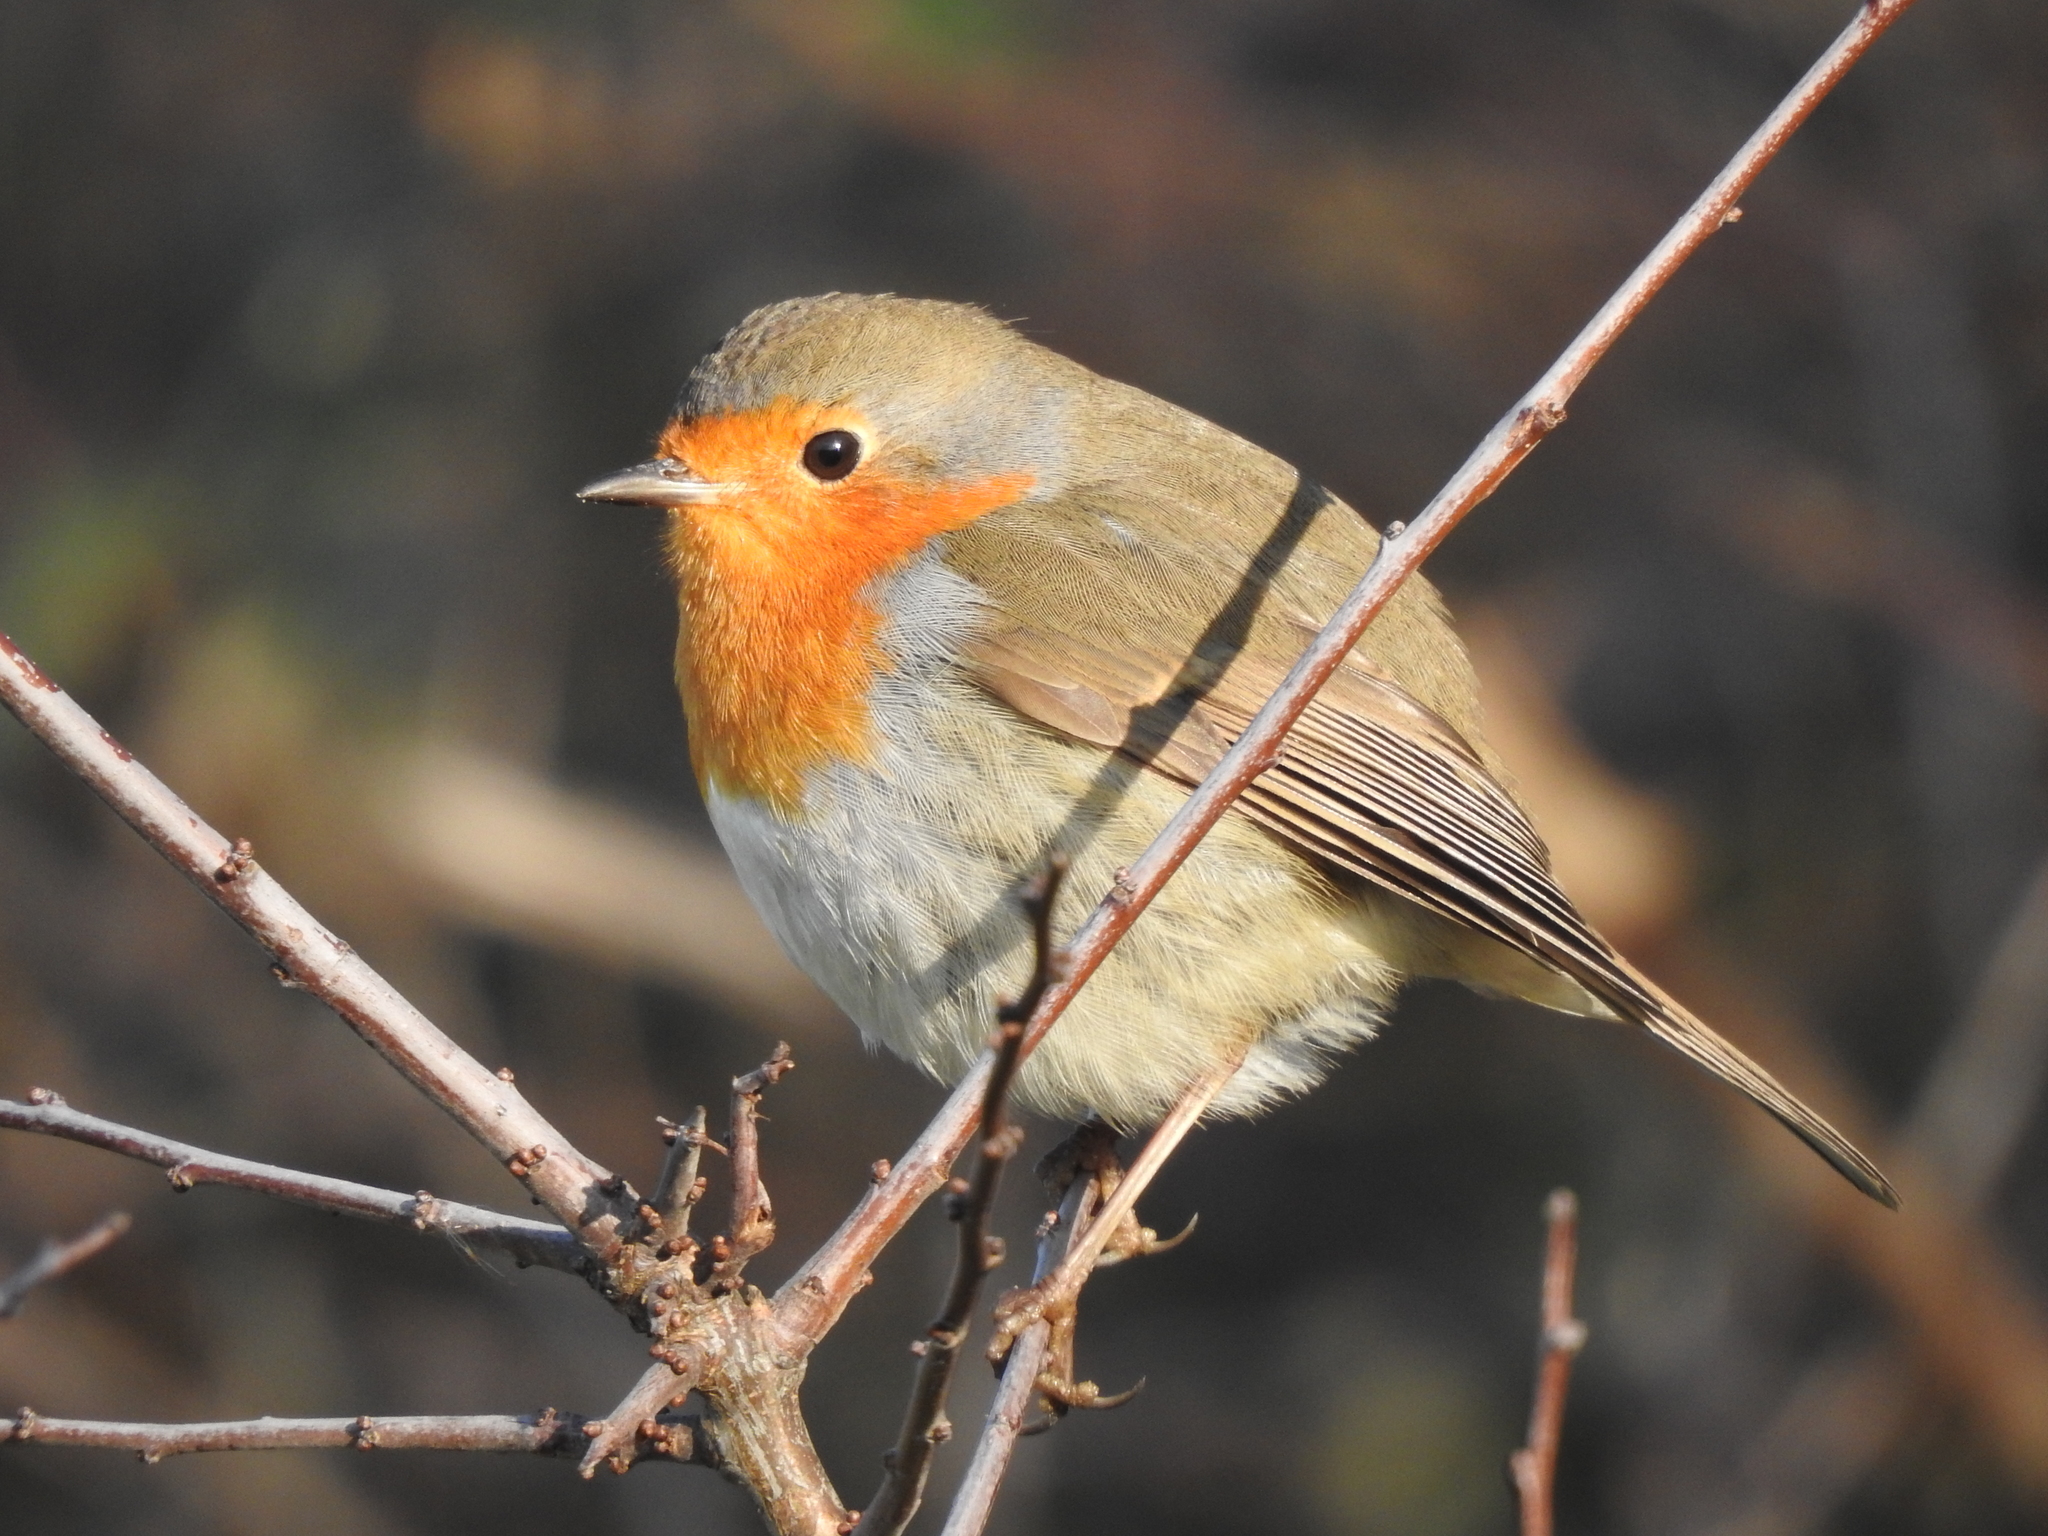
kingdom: Animalia
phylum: Chordata
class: Aves
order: Passeriformes
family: Muscicapidae
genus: Erithacus
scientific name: Erithacus rubecula
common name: European robin
